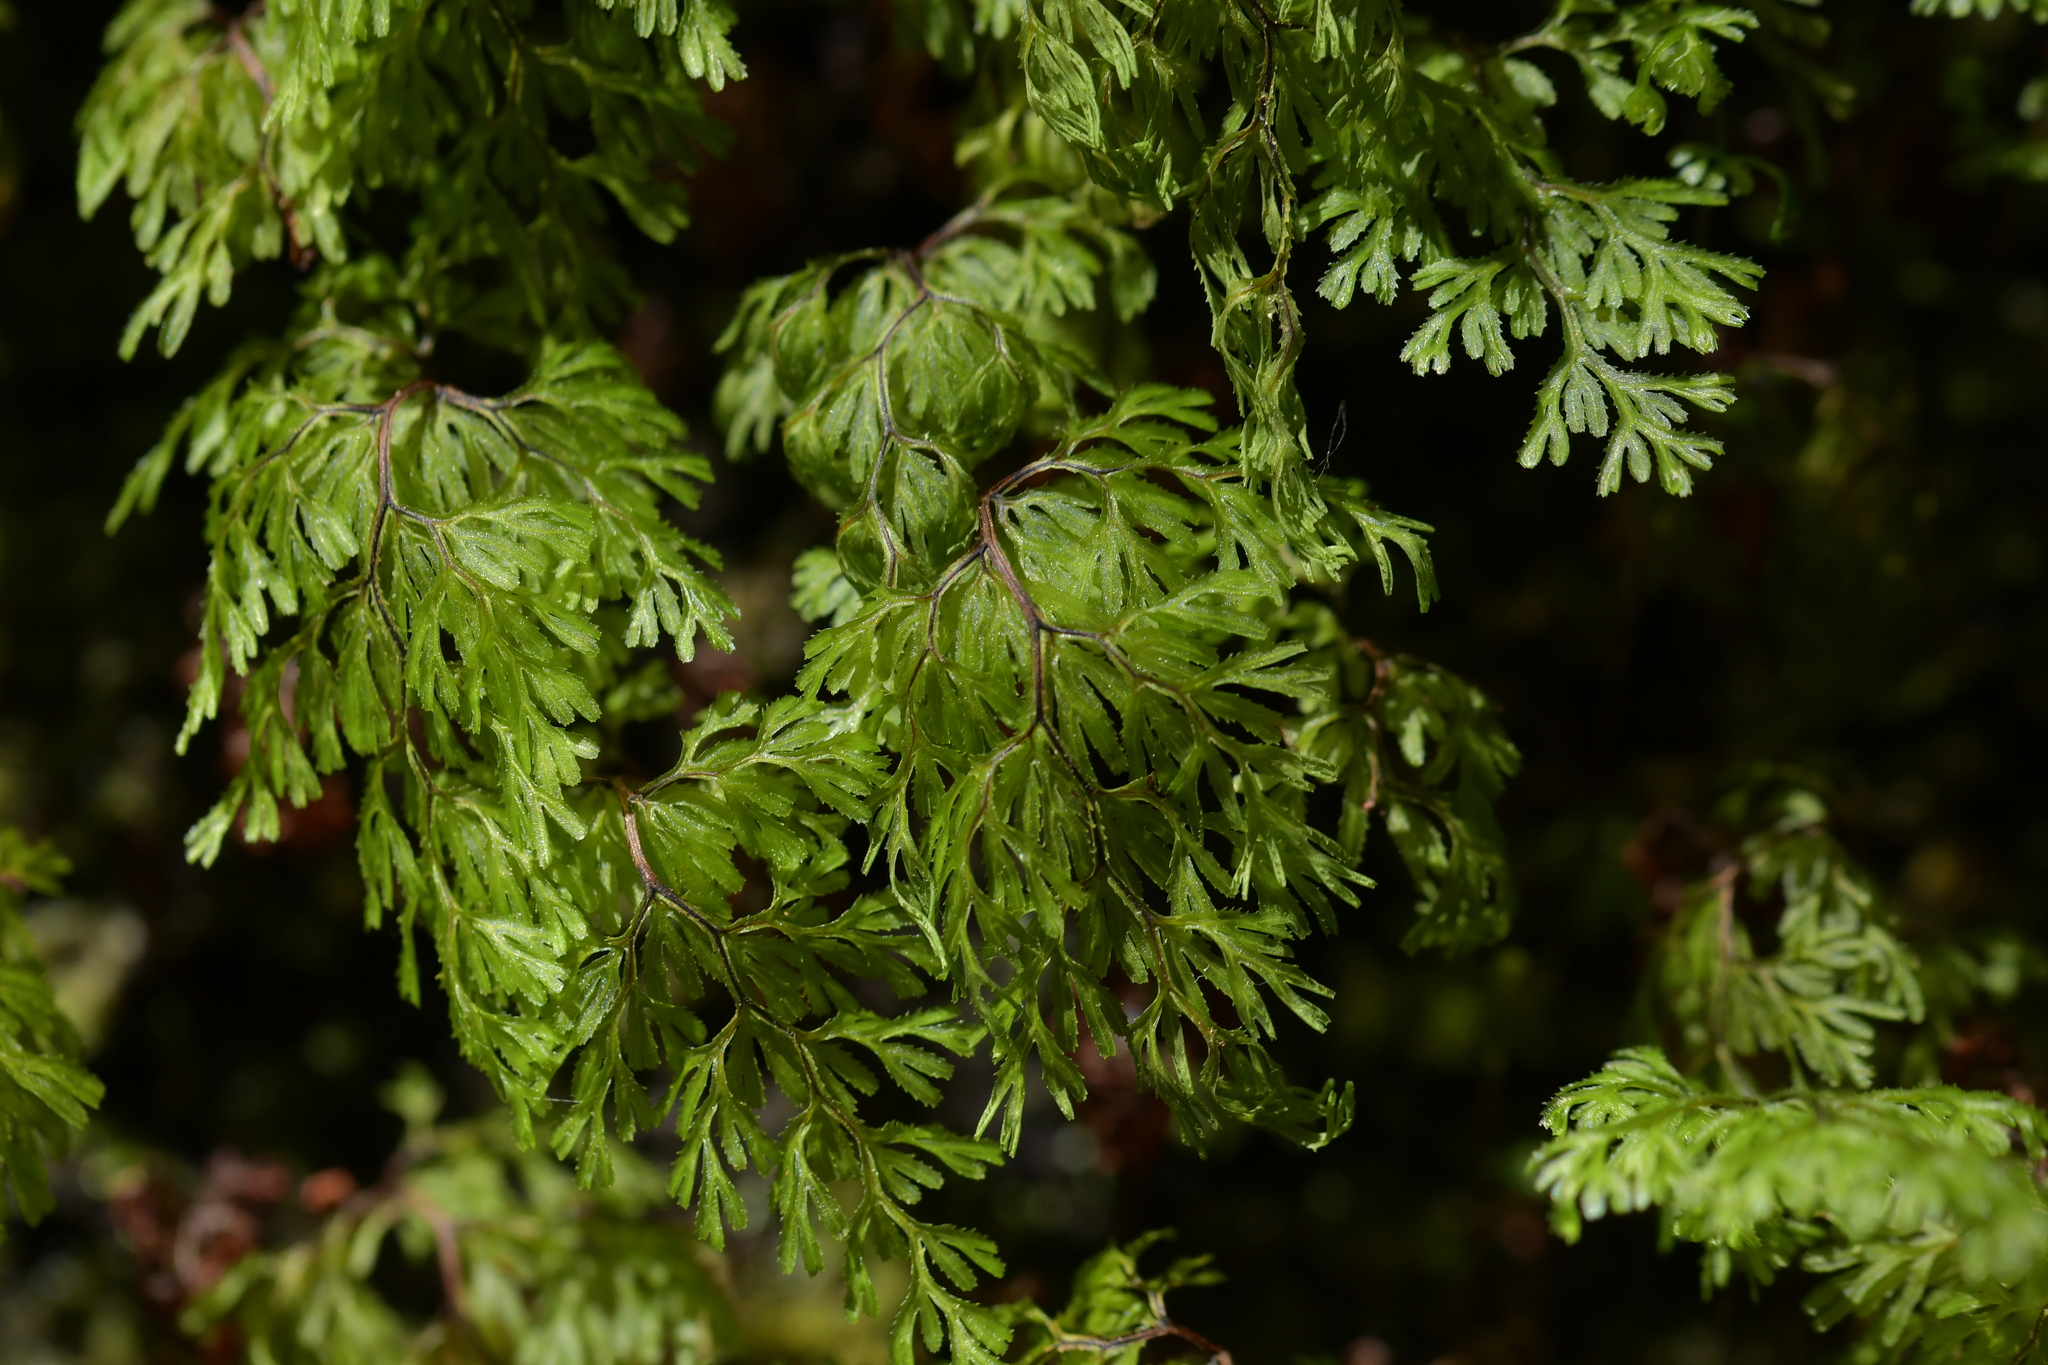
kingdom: Plantae
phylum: Tracheophyta
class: Polypodiopsida
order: Hymenophyllales
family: Hymenophyllaceae
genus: Hymenophyllum
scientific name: Hymenophyllum multifidum
